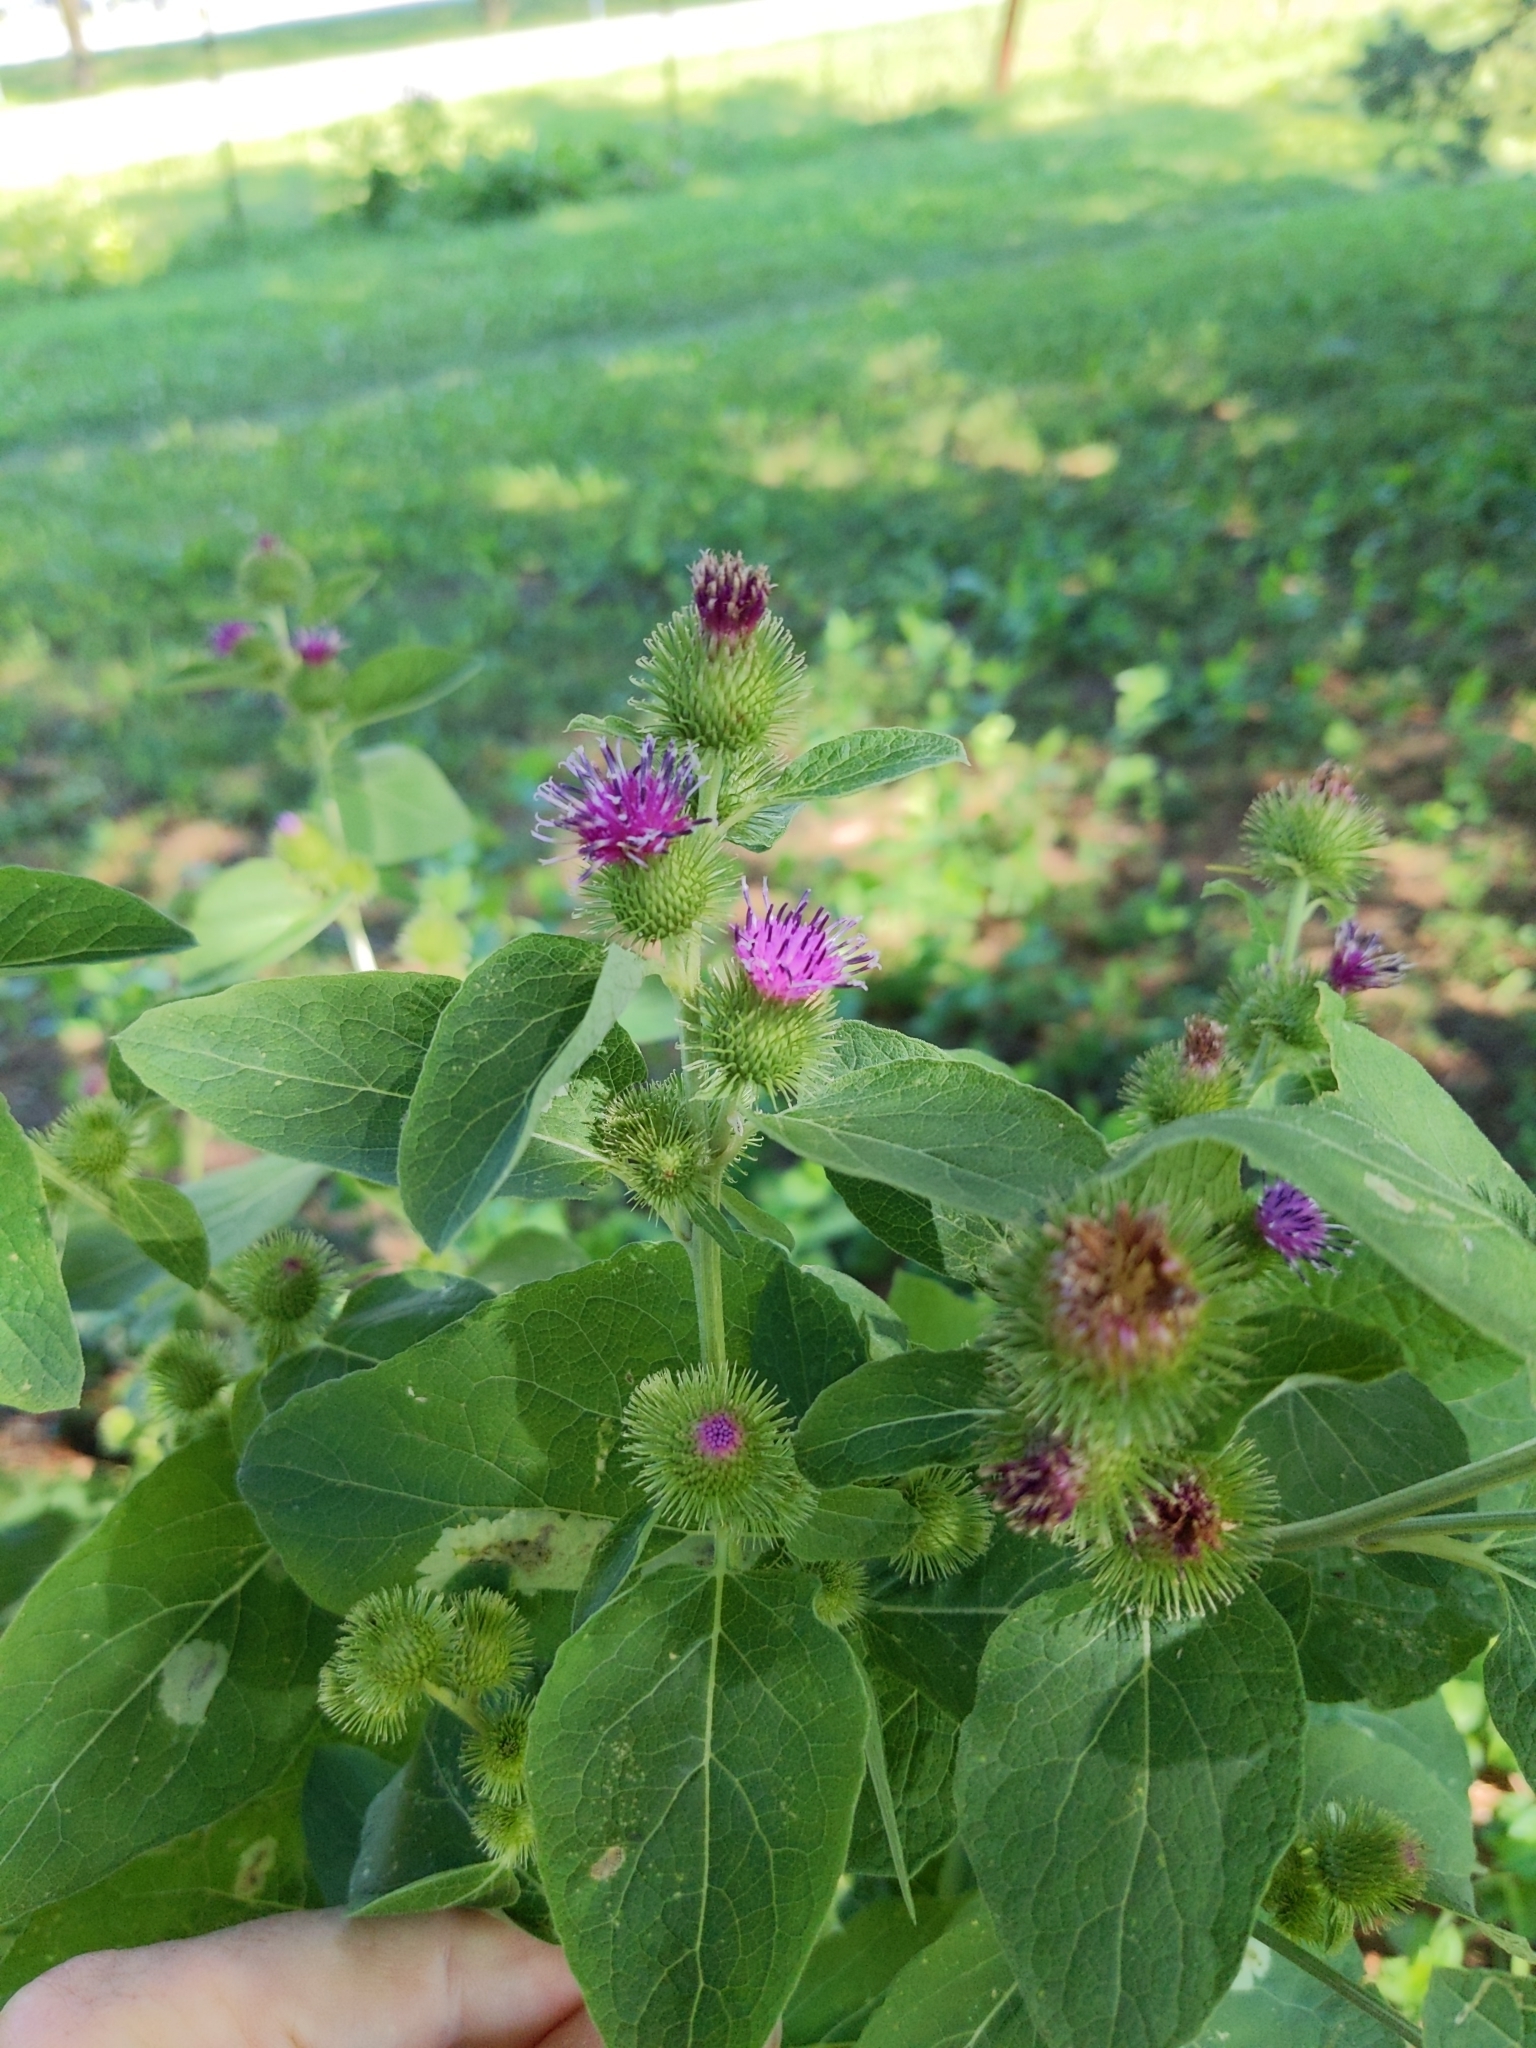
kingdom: Plantae
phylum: Tracheophyta
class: Magnoliopsida
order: Asterales
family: Asteraceae
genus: Arctium
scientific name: Arctium minus
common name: Lesser burdock
